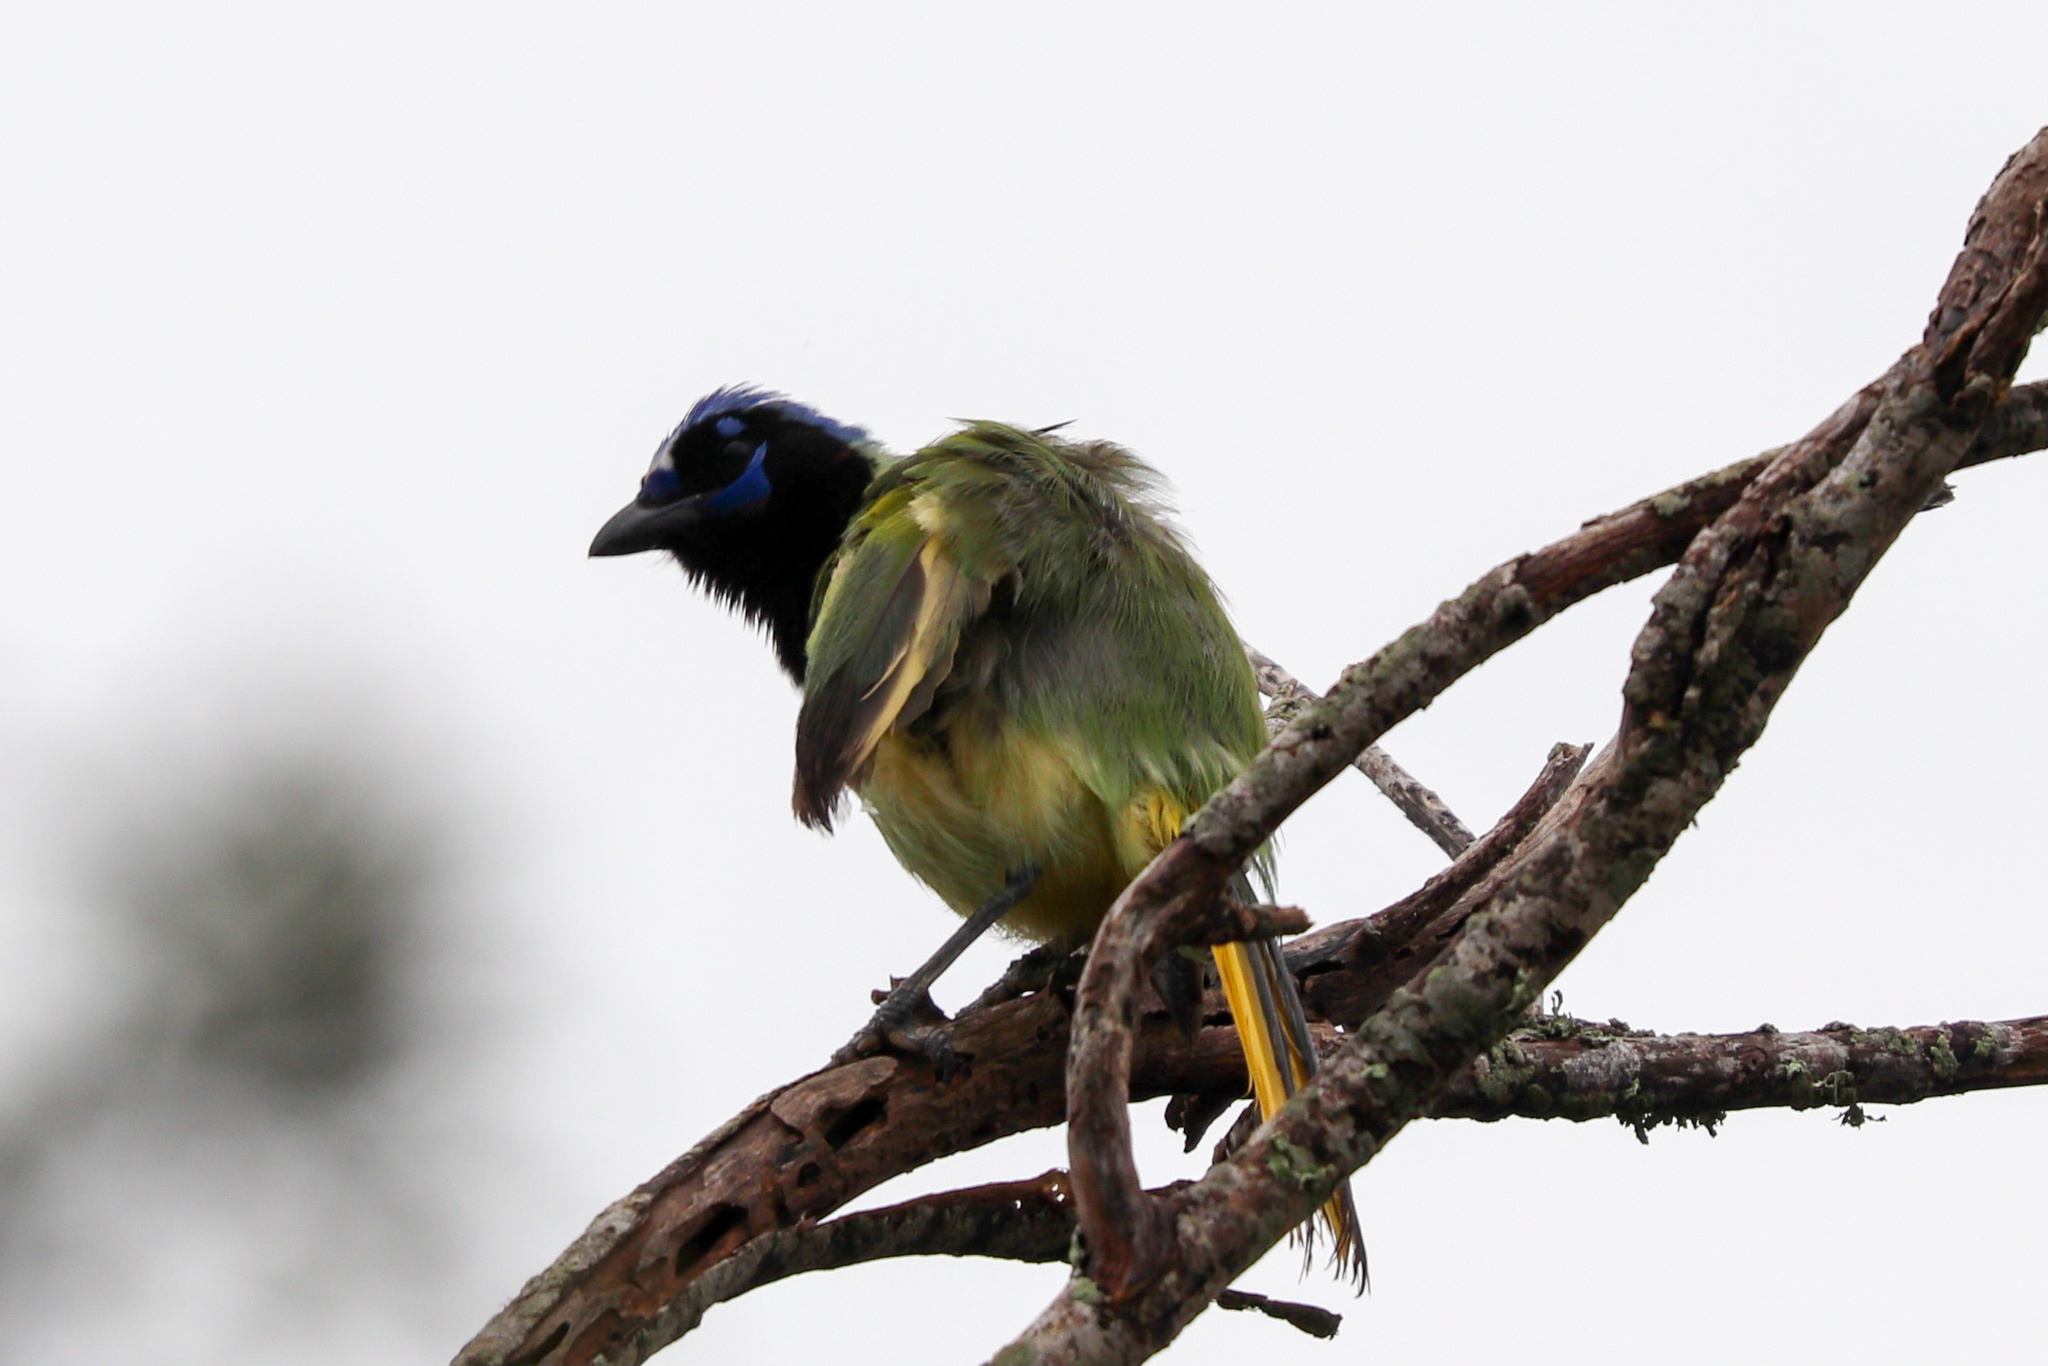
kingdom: Animalia
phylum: Chordata
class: Aves
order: Passeriformes
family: Corvidae
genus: Cyanocorax
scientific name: Cyanocorax yncas
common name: Green jay
